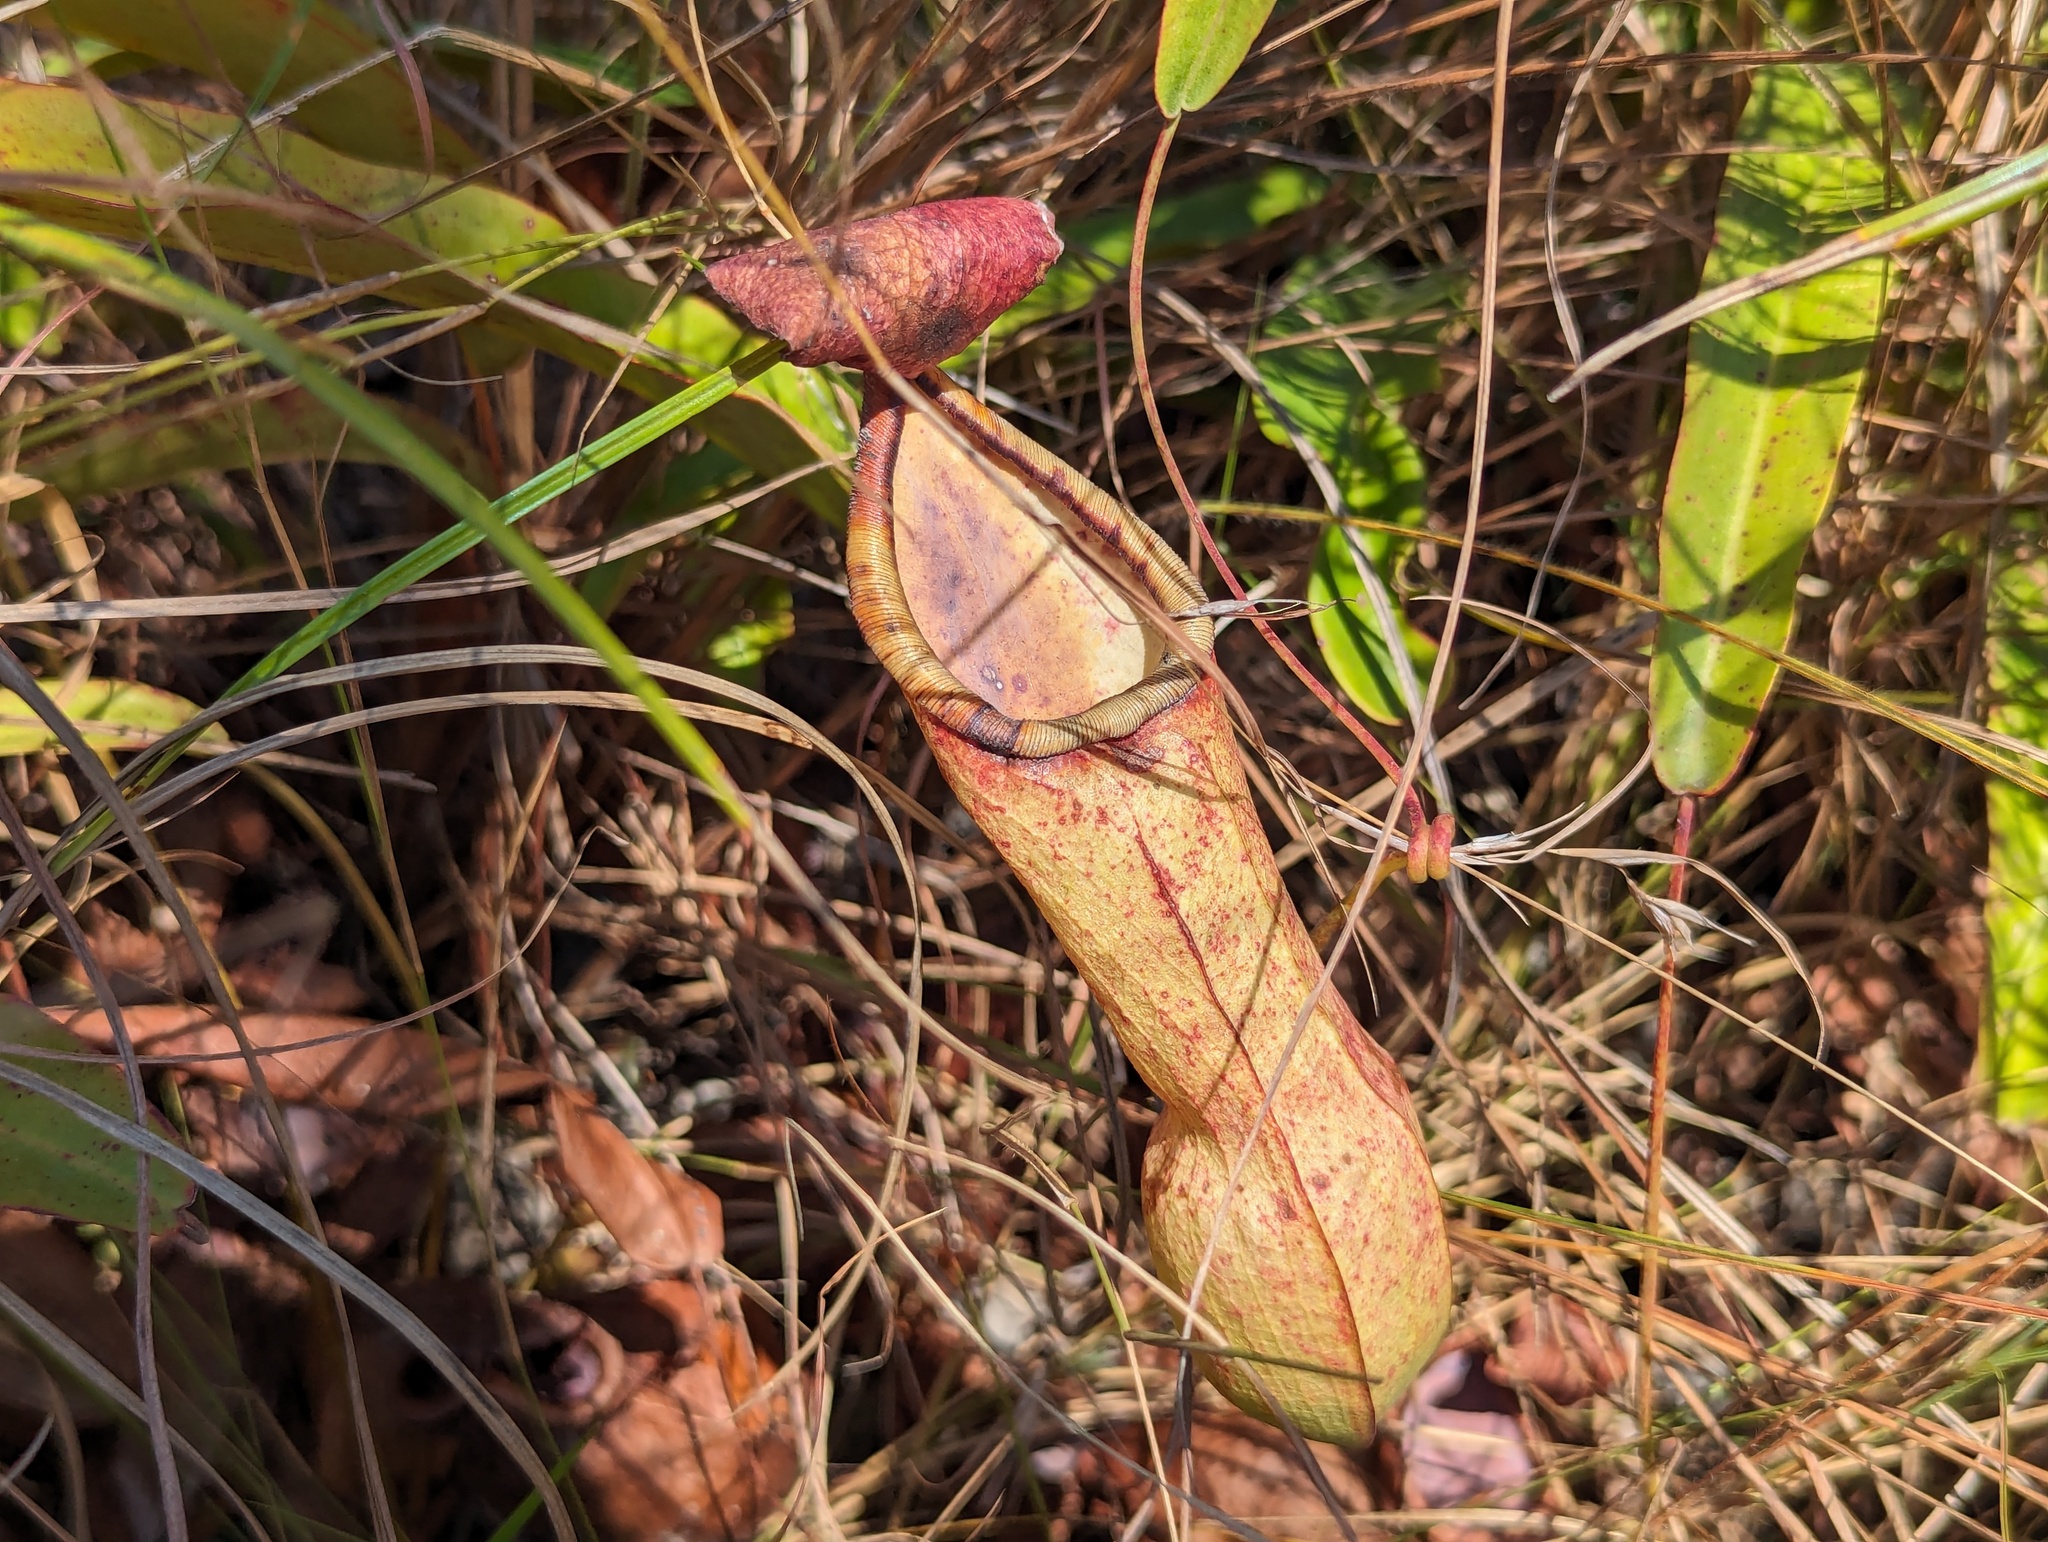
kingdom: Plantae
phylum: Tracheophyta
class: Magnoliopsida
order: Caryophyllales
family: Nepenthaceae
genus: Nepenthes
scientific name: Nepenthes abalata
